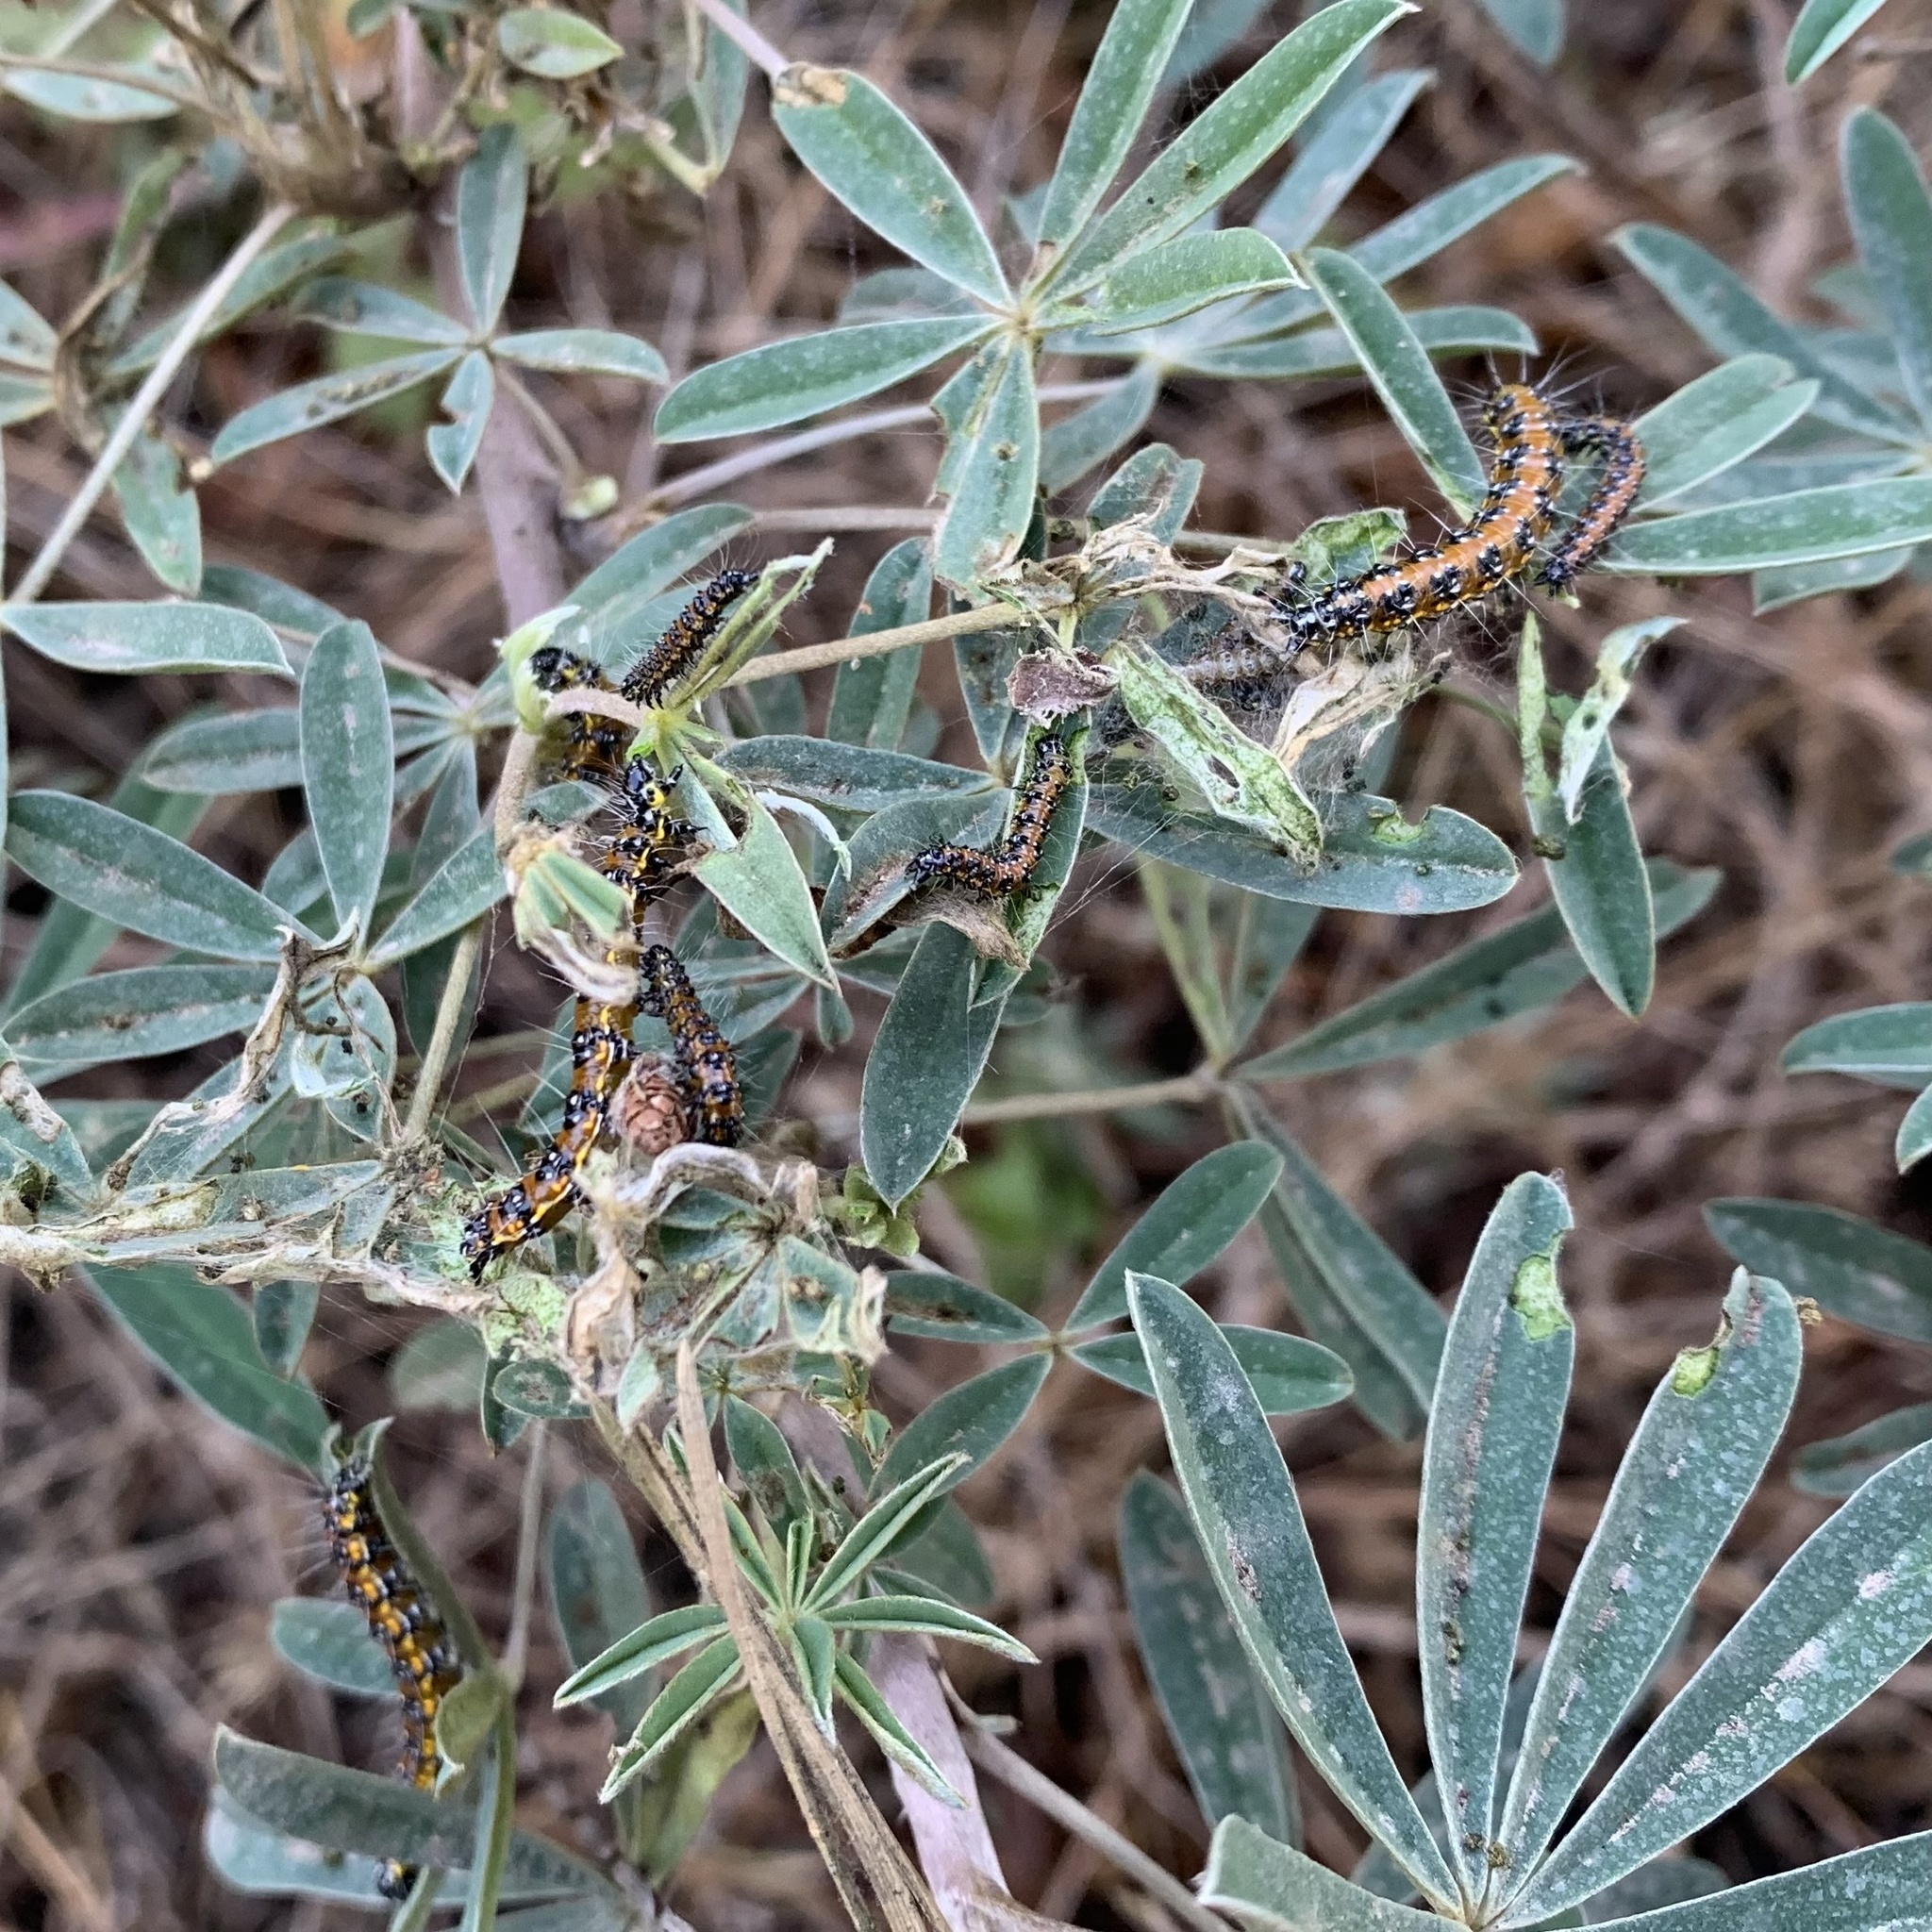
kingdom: Animalia
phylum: Arthropoda
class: Insecta
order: Lepidoptera
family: Crambidae
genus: Uresiphita
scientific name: Uresiphita reversalis
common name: Genista broom moth
